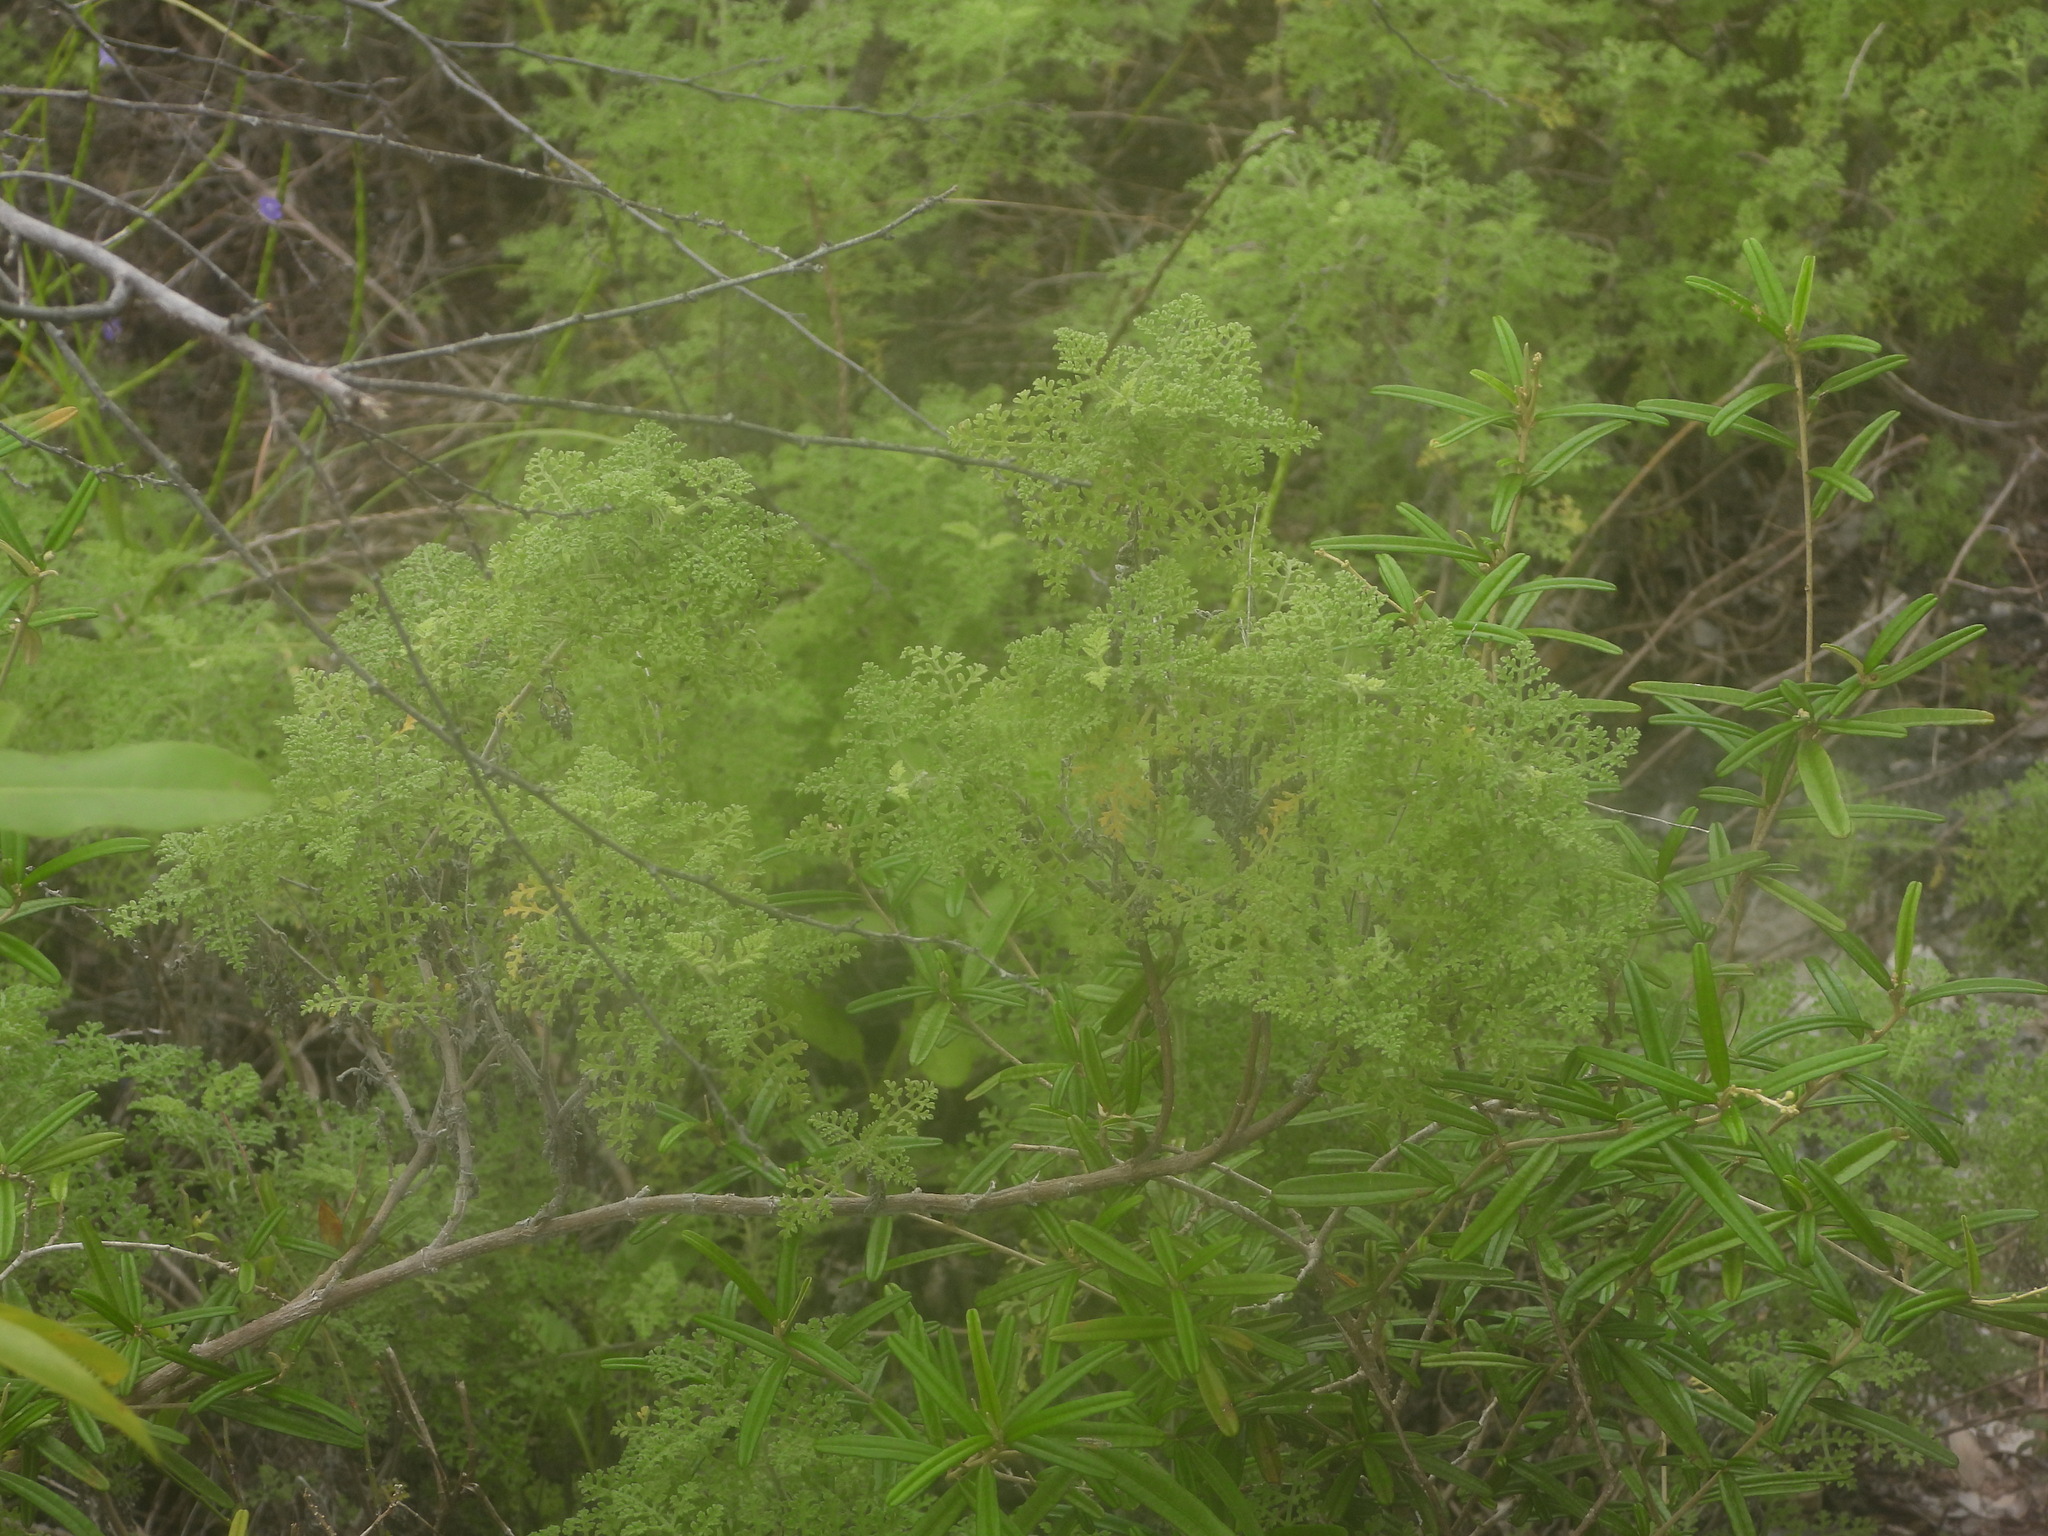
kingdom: Plantae
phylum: Tracheophyta
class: Magnoliopsida
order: Asterales
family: Asteraceae
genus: Ambrosia
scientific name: Ambrosia hispida
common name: Coastal ragweed
